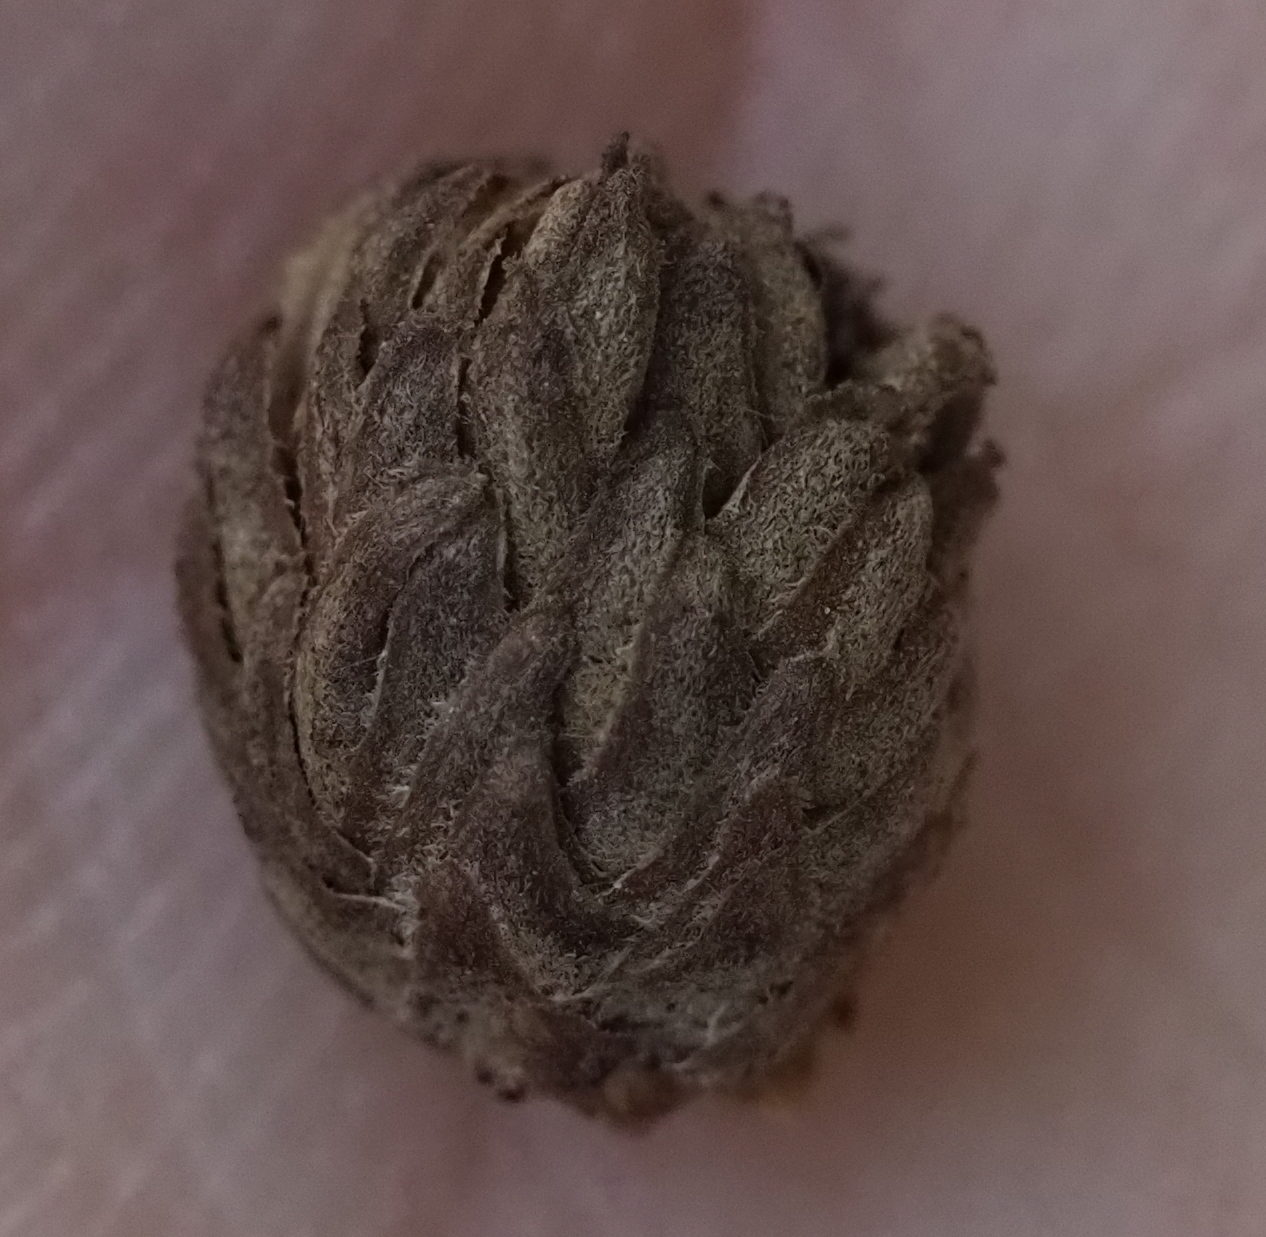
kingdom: Animalia
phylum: Arthropoda
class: Insecta
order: Hymenoptera
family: Cynipidae
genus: Andricus
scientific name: Andricus quercusfoliatus
